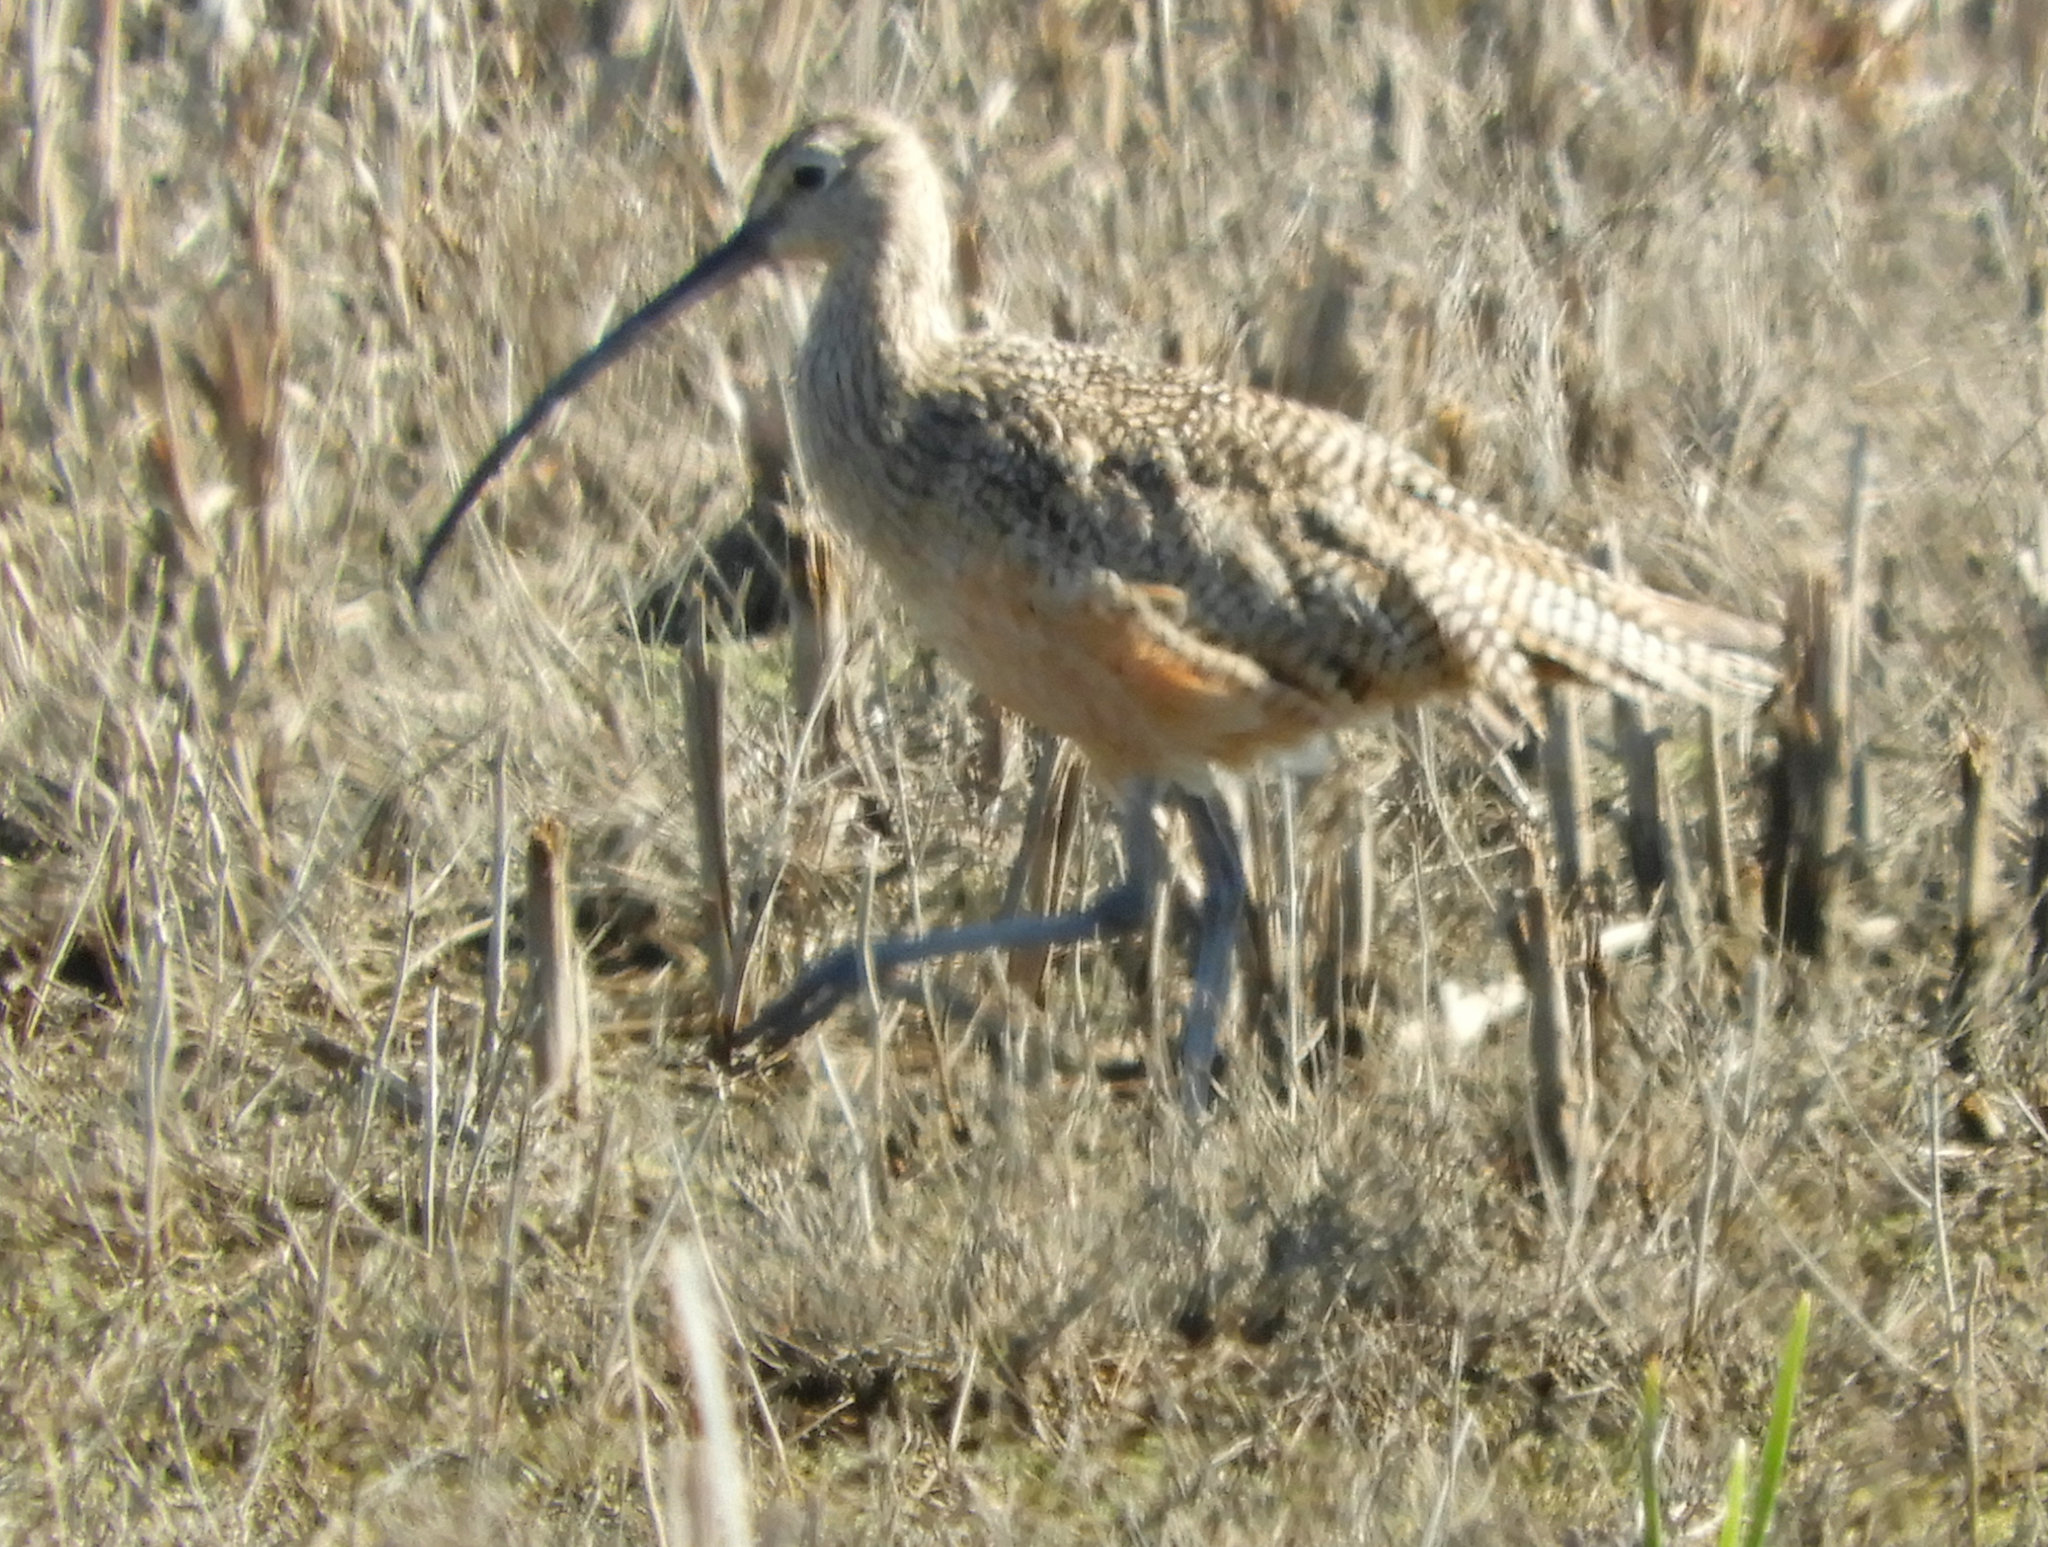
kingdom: Animalia
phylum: Chordata
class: Aves
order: Charadriiformes
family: Scolopacidae
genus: Numenius
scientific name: Numenius americanus
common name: Long-billed curlew
